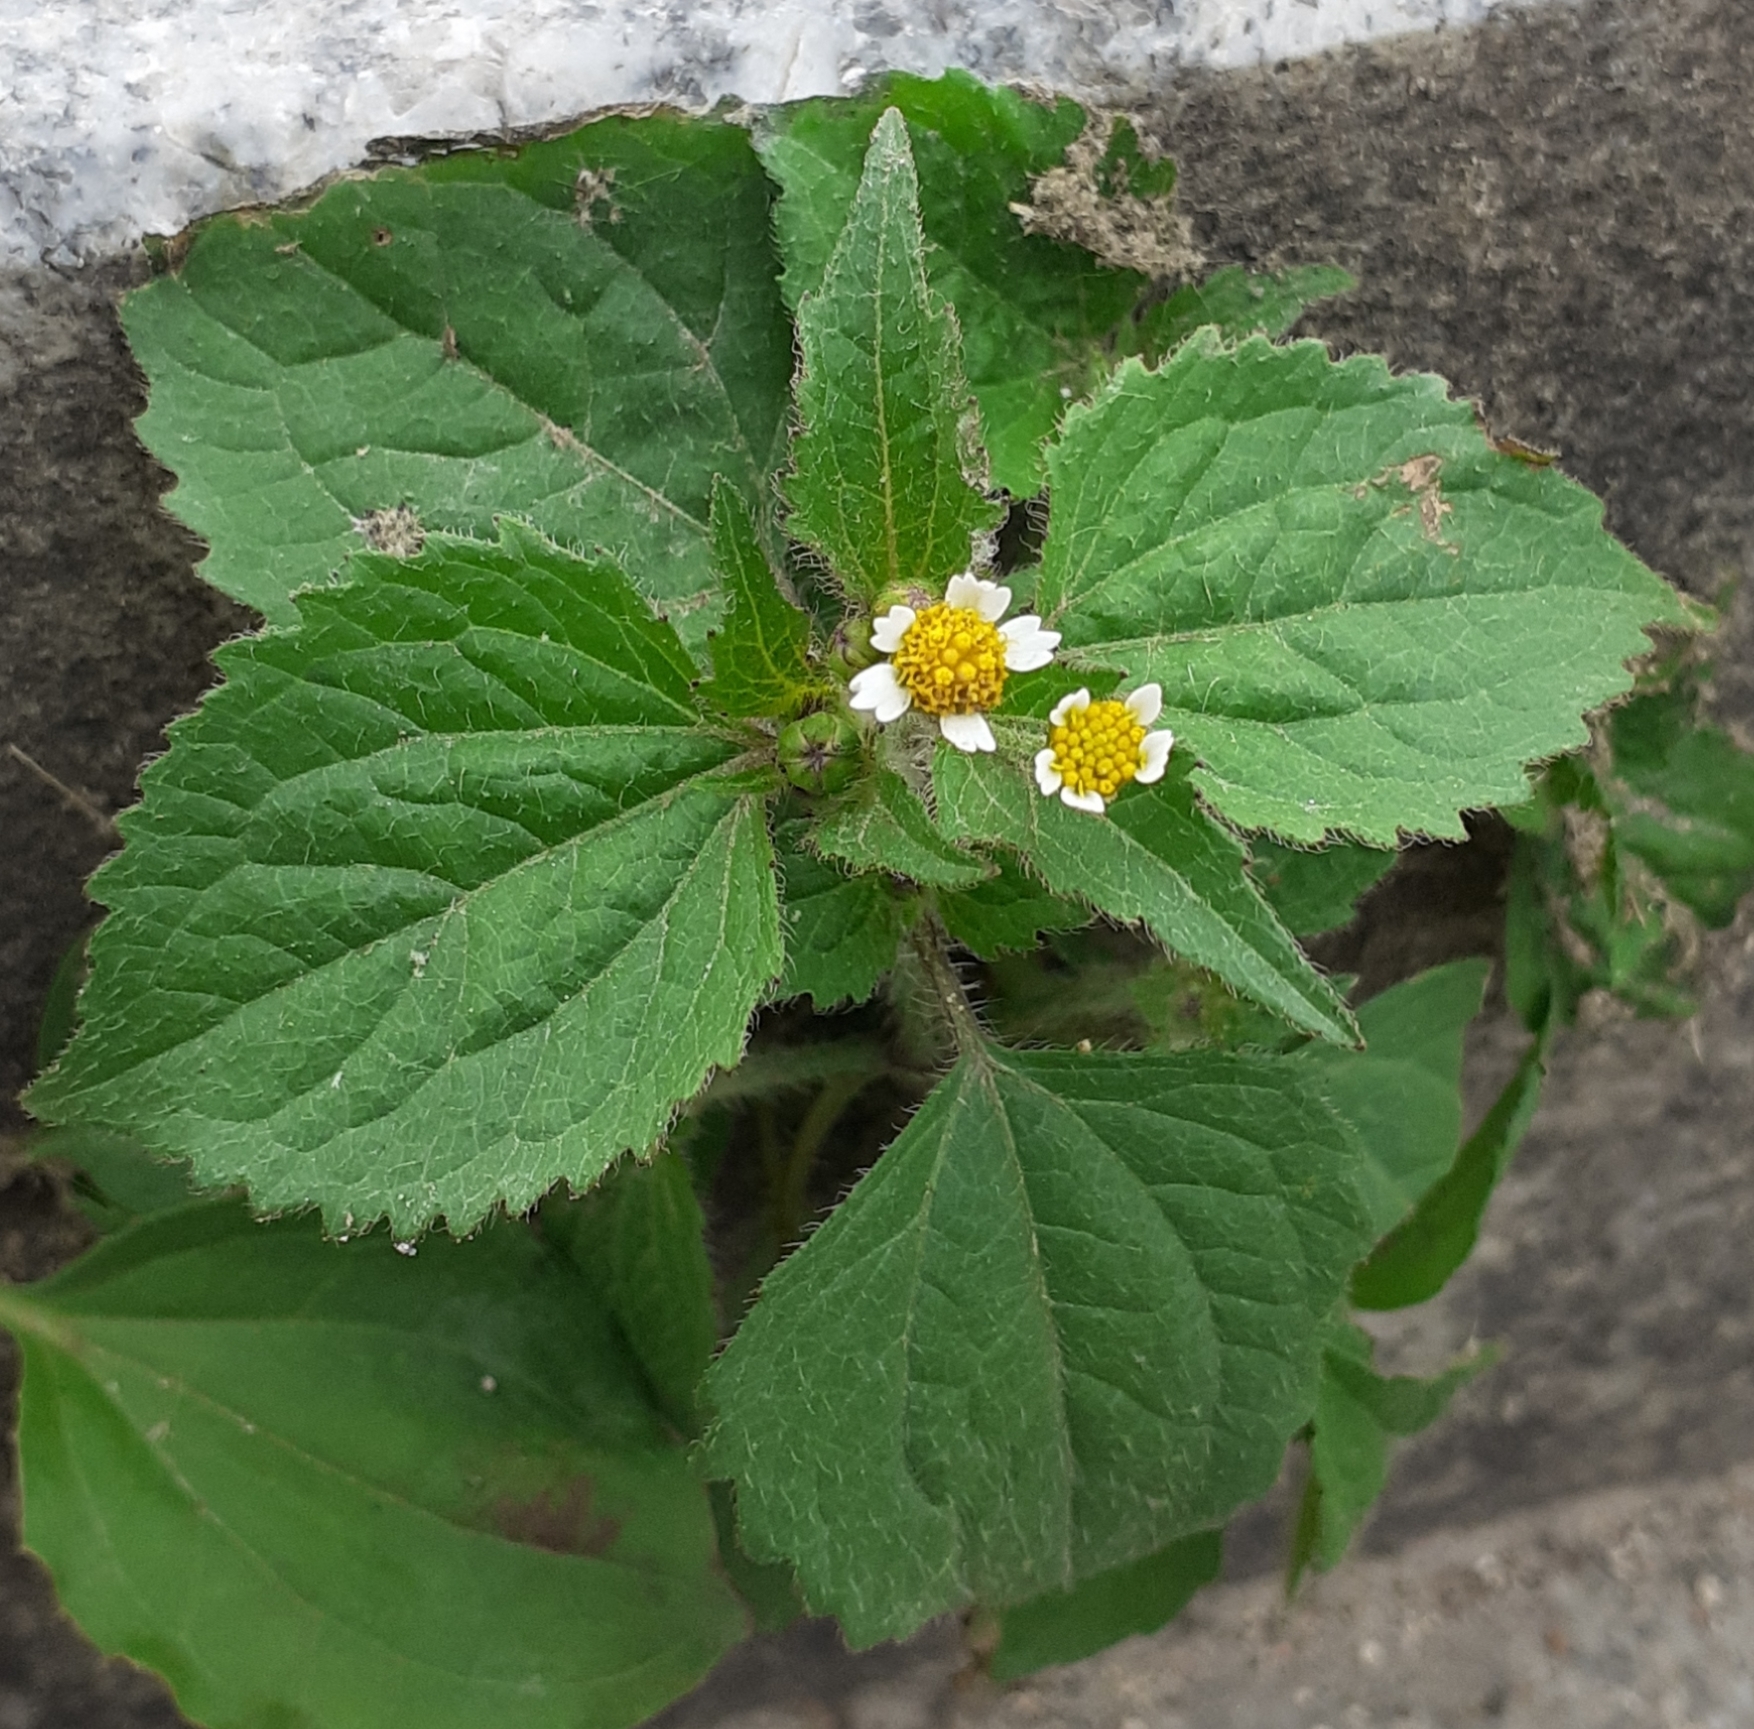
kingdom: Plantae
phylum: Tracheophyta
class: Magnoliopsida
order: Asterales
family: Asteraceae
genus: Galinsoga
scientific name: Galinsoga quadriradiata
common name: Shaggy soldier
